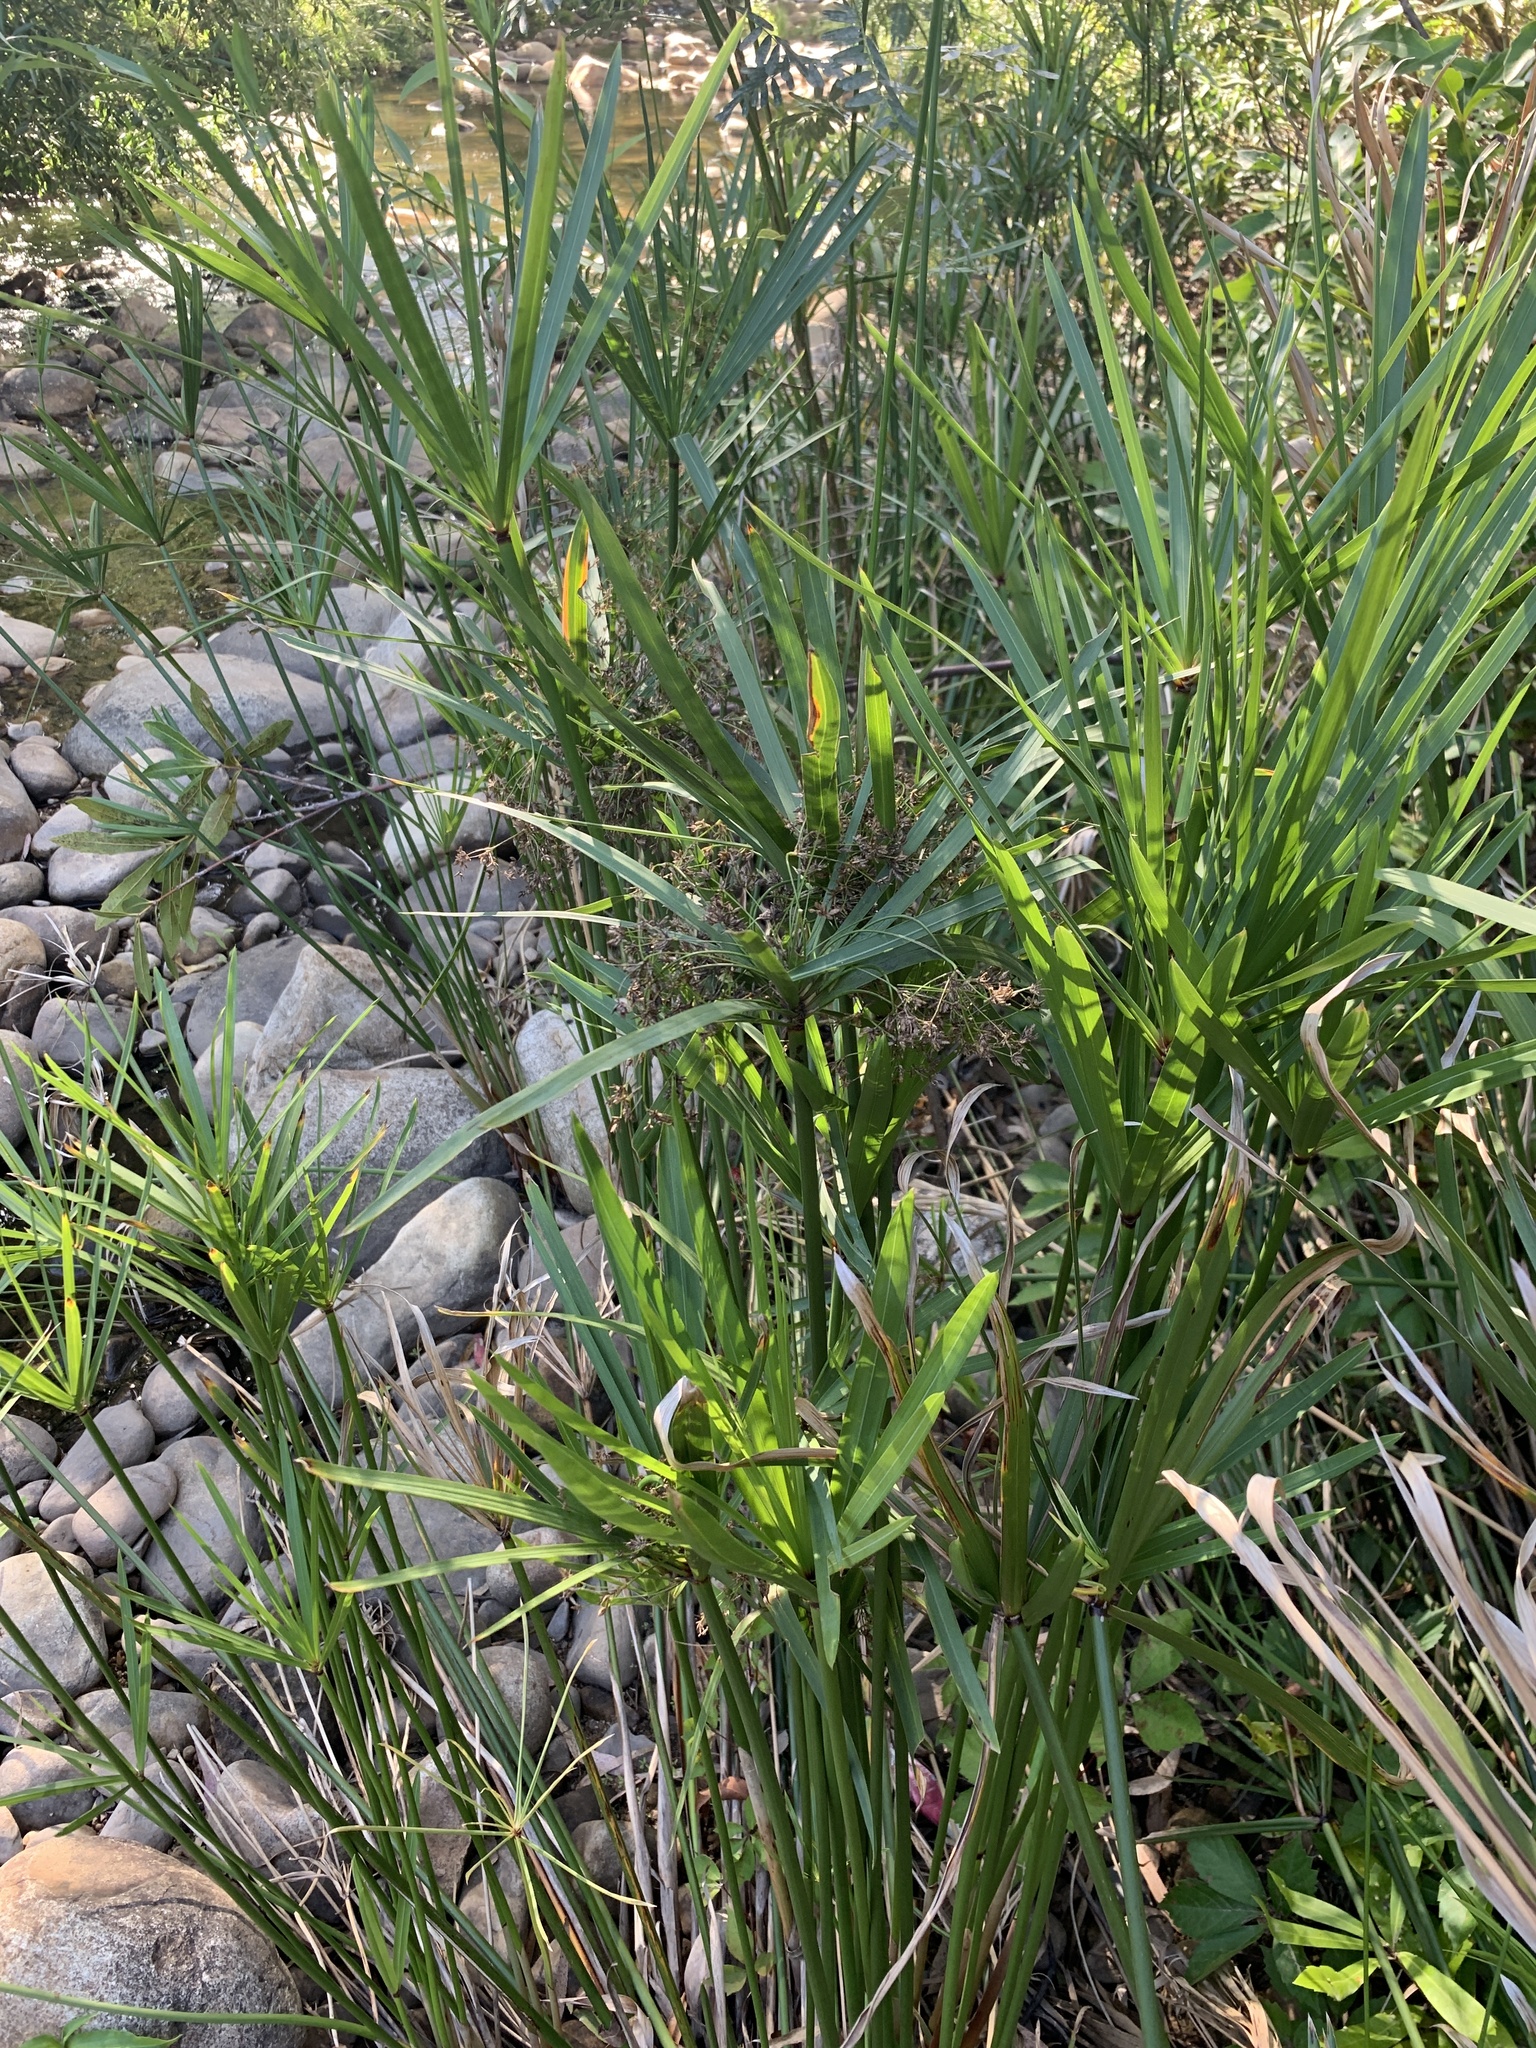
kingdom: Plantae
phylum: Tracheophyta
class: Liliopsida
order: Poales
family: Cyperaceae
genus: Cyperus
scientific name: Cyperus textilis
